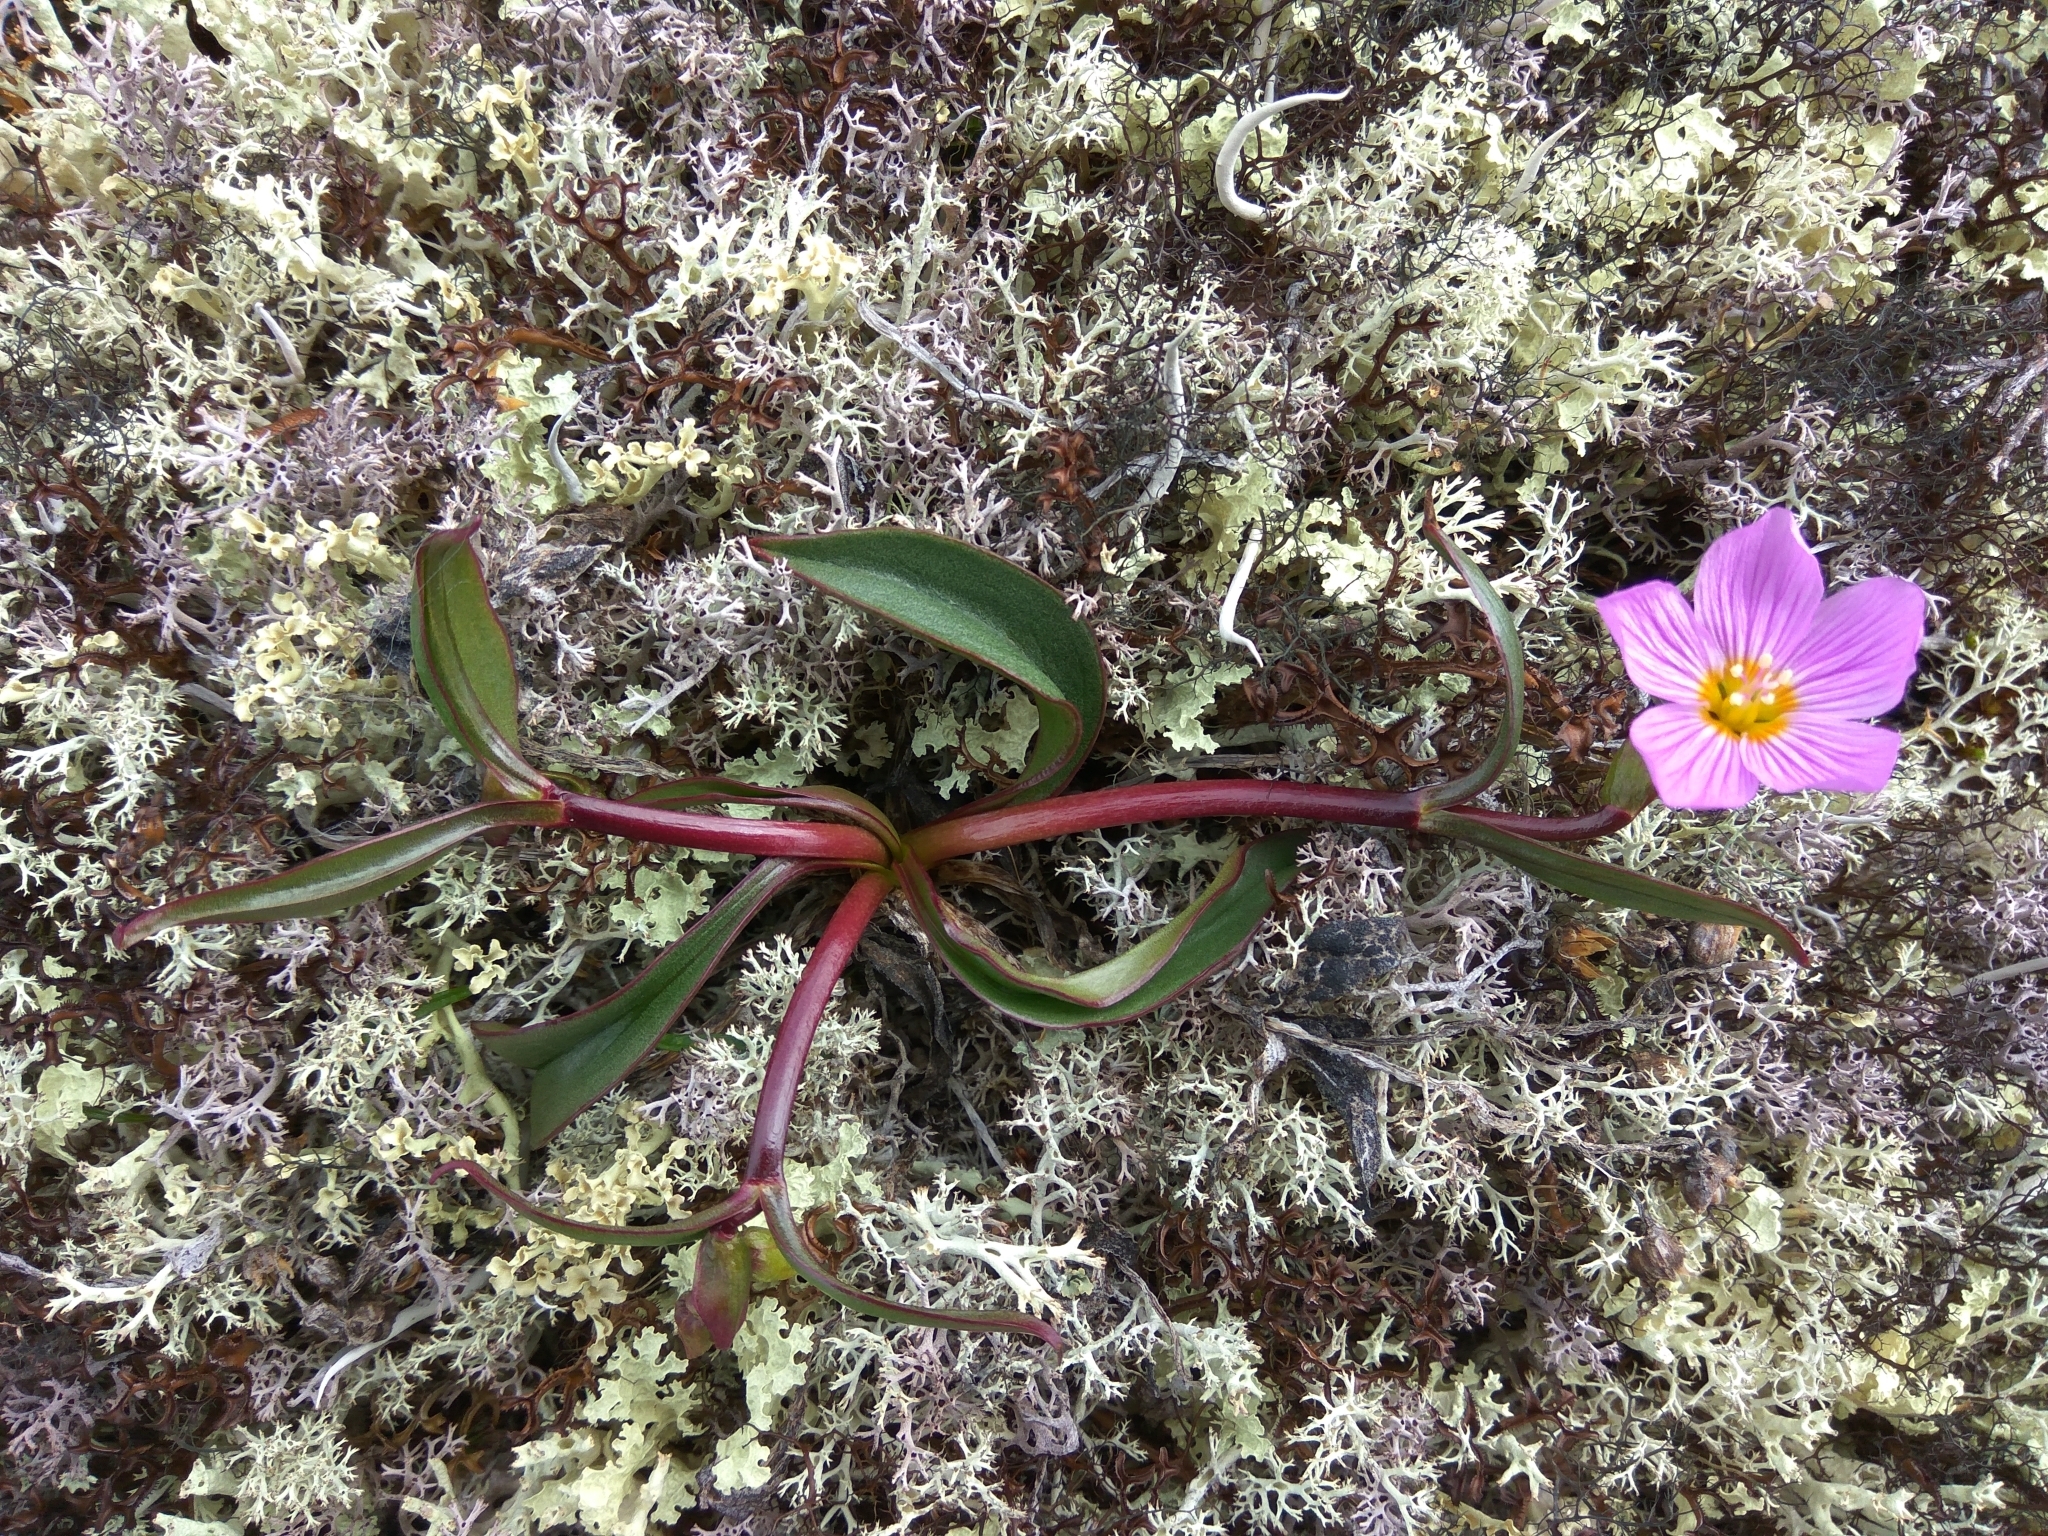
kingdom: Plantae
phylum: Tracheophyta
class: Magnoliopsida
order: Caryophyllales
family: Montiaceae
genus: Claytonia
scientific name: Claytonia acutifolia
